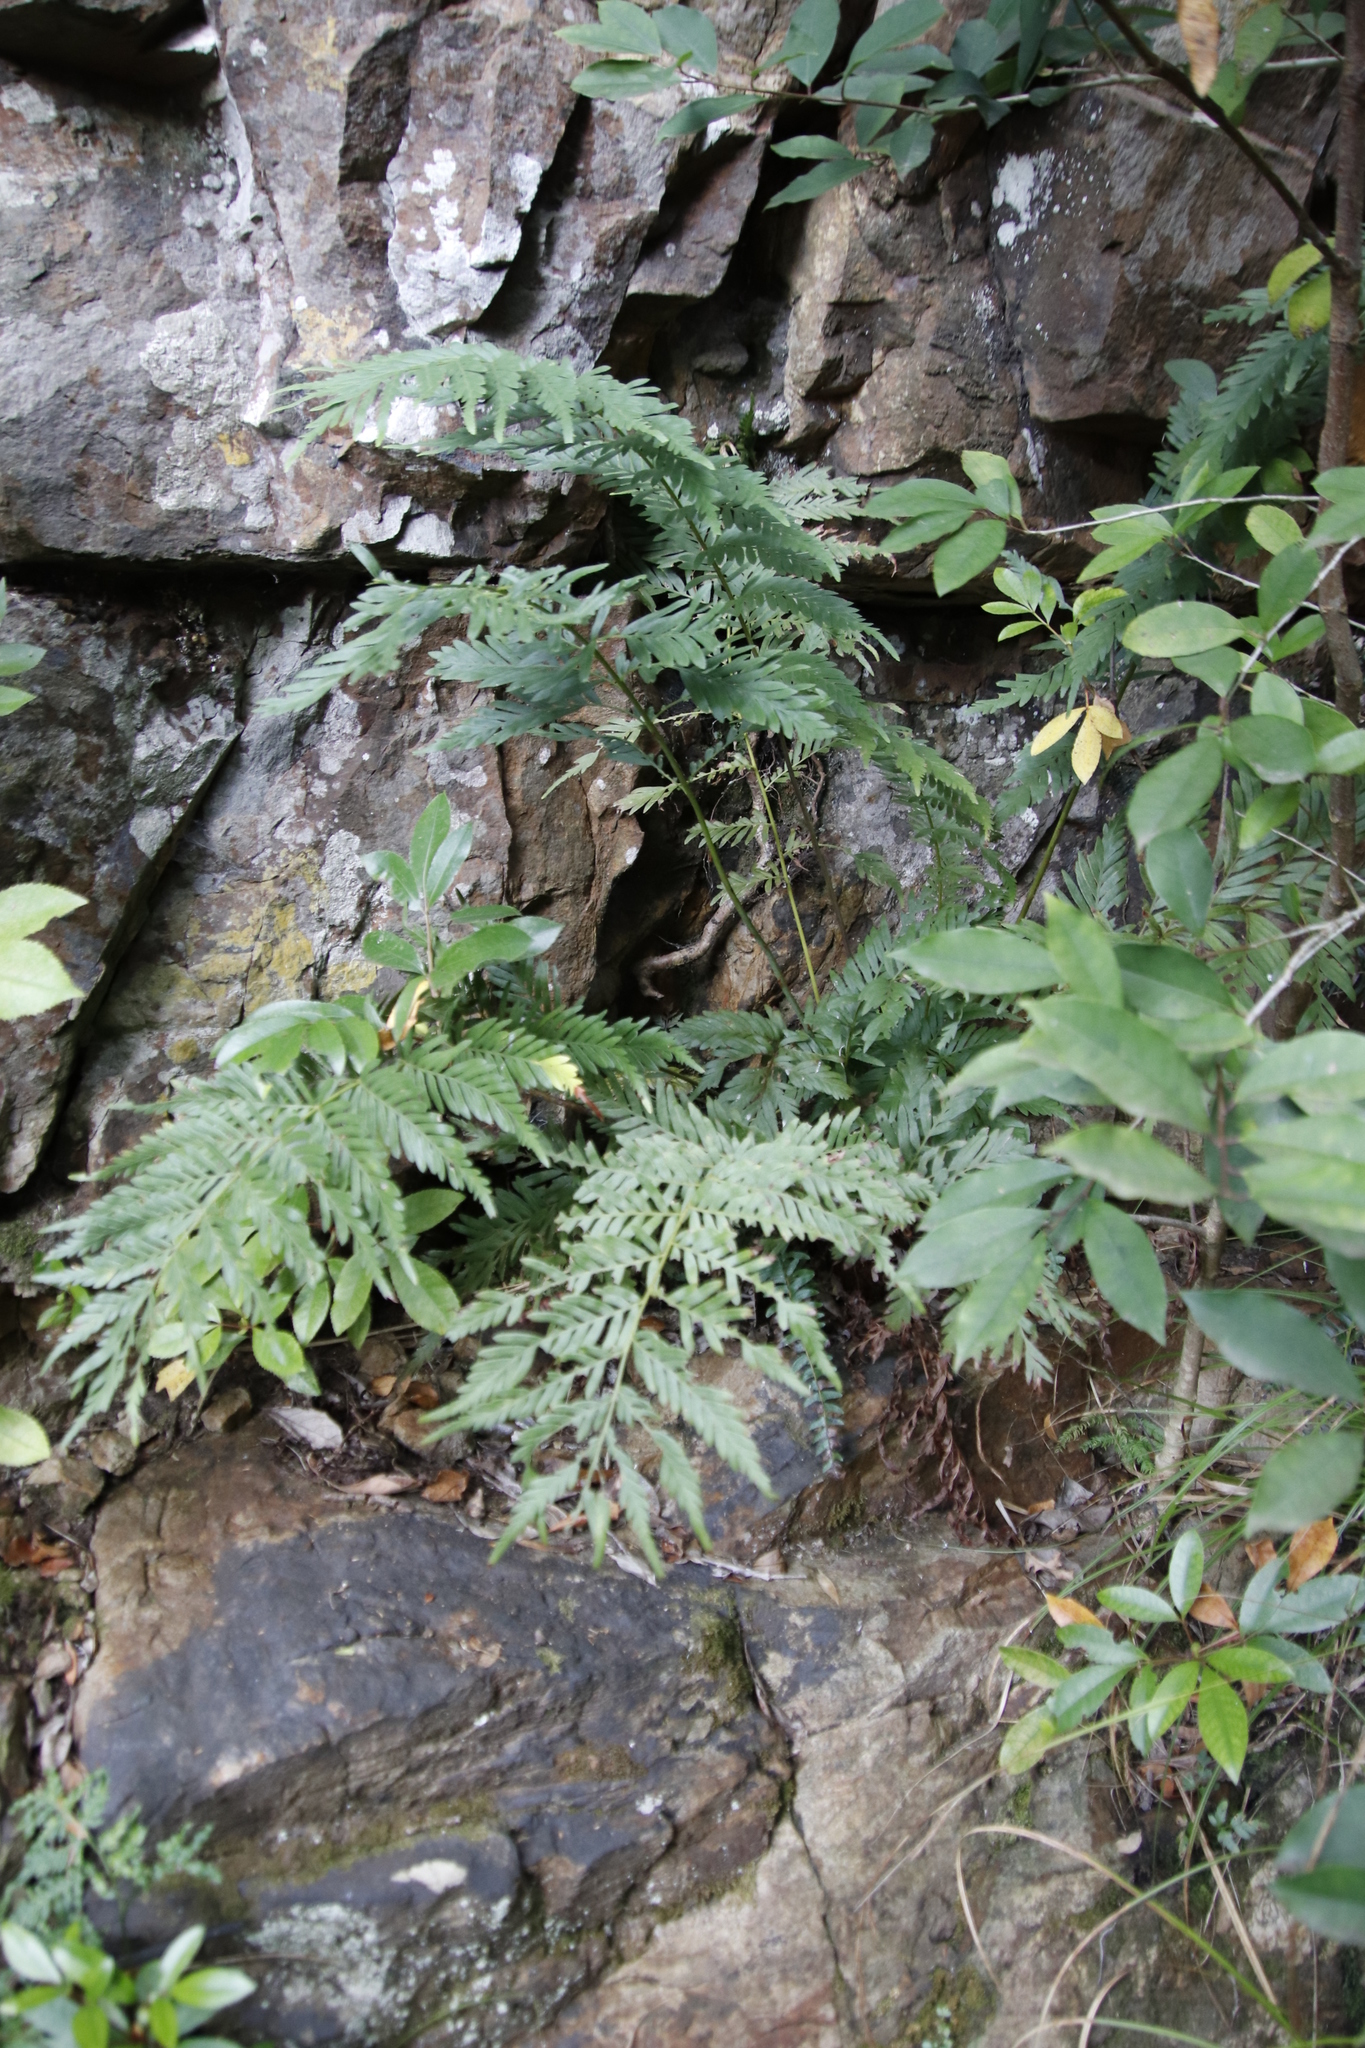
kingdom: Plantae
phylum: Tracheophyta
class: Polypodiopsida
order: Osmundales
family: Osmundaceae
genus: Todea
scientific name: Todea barbara
